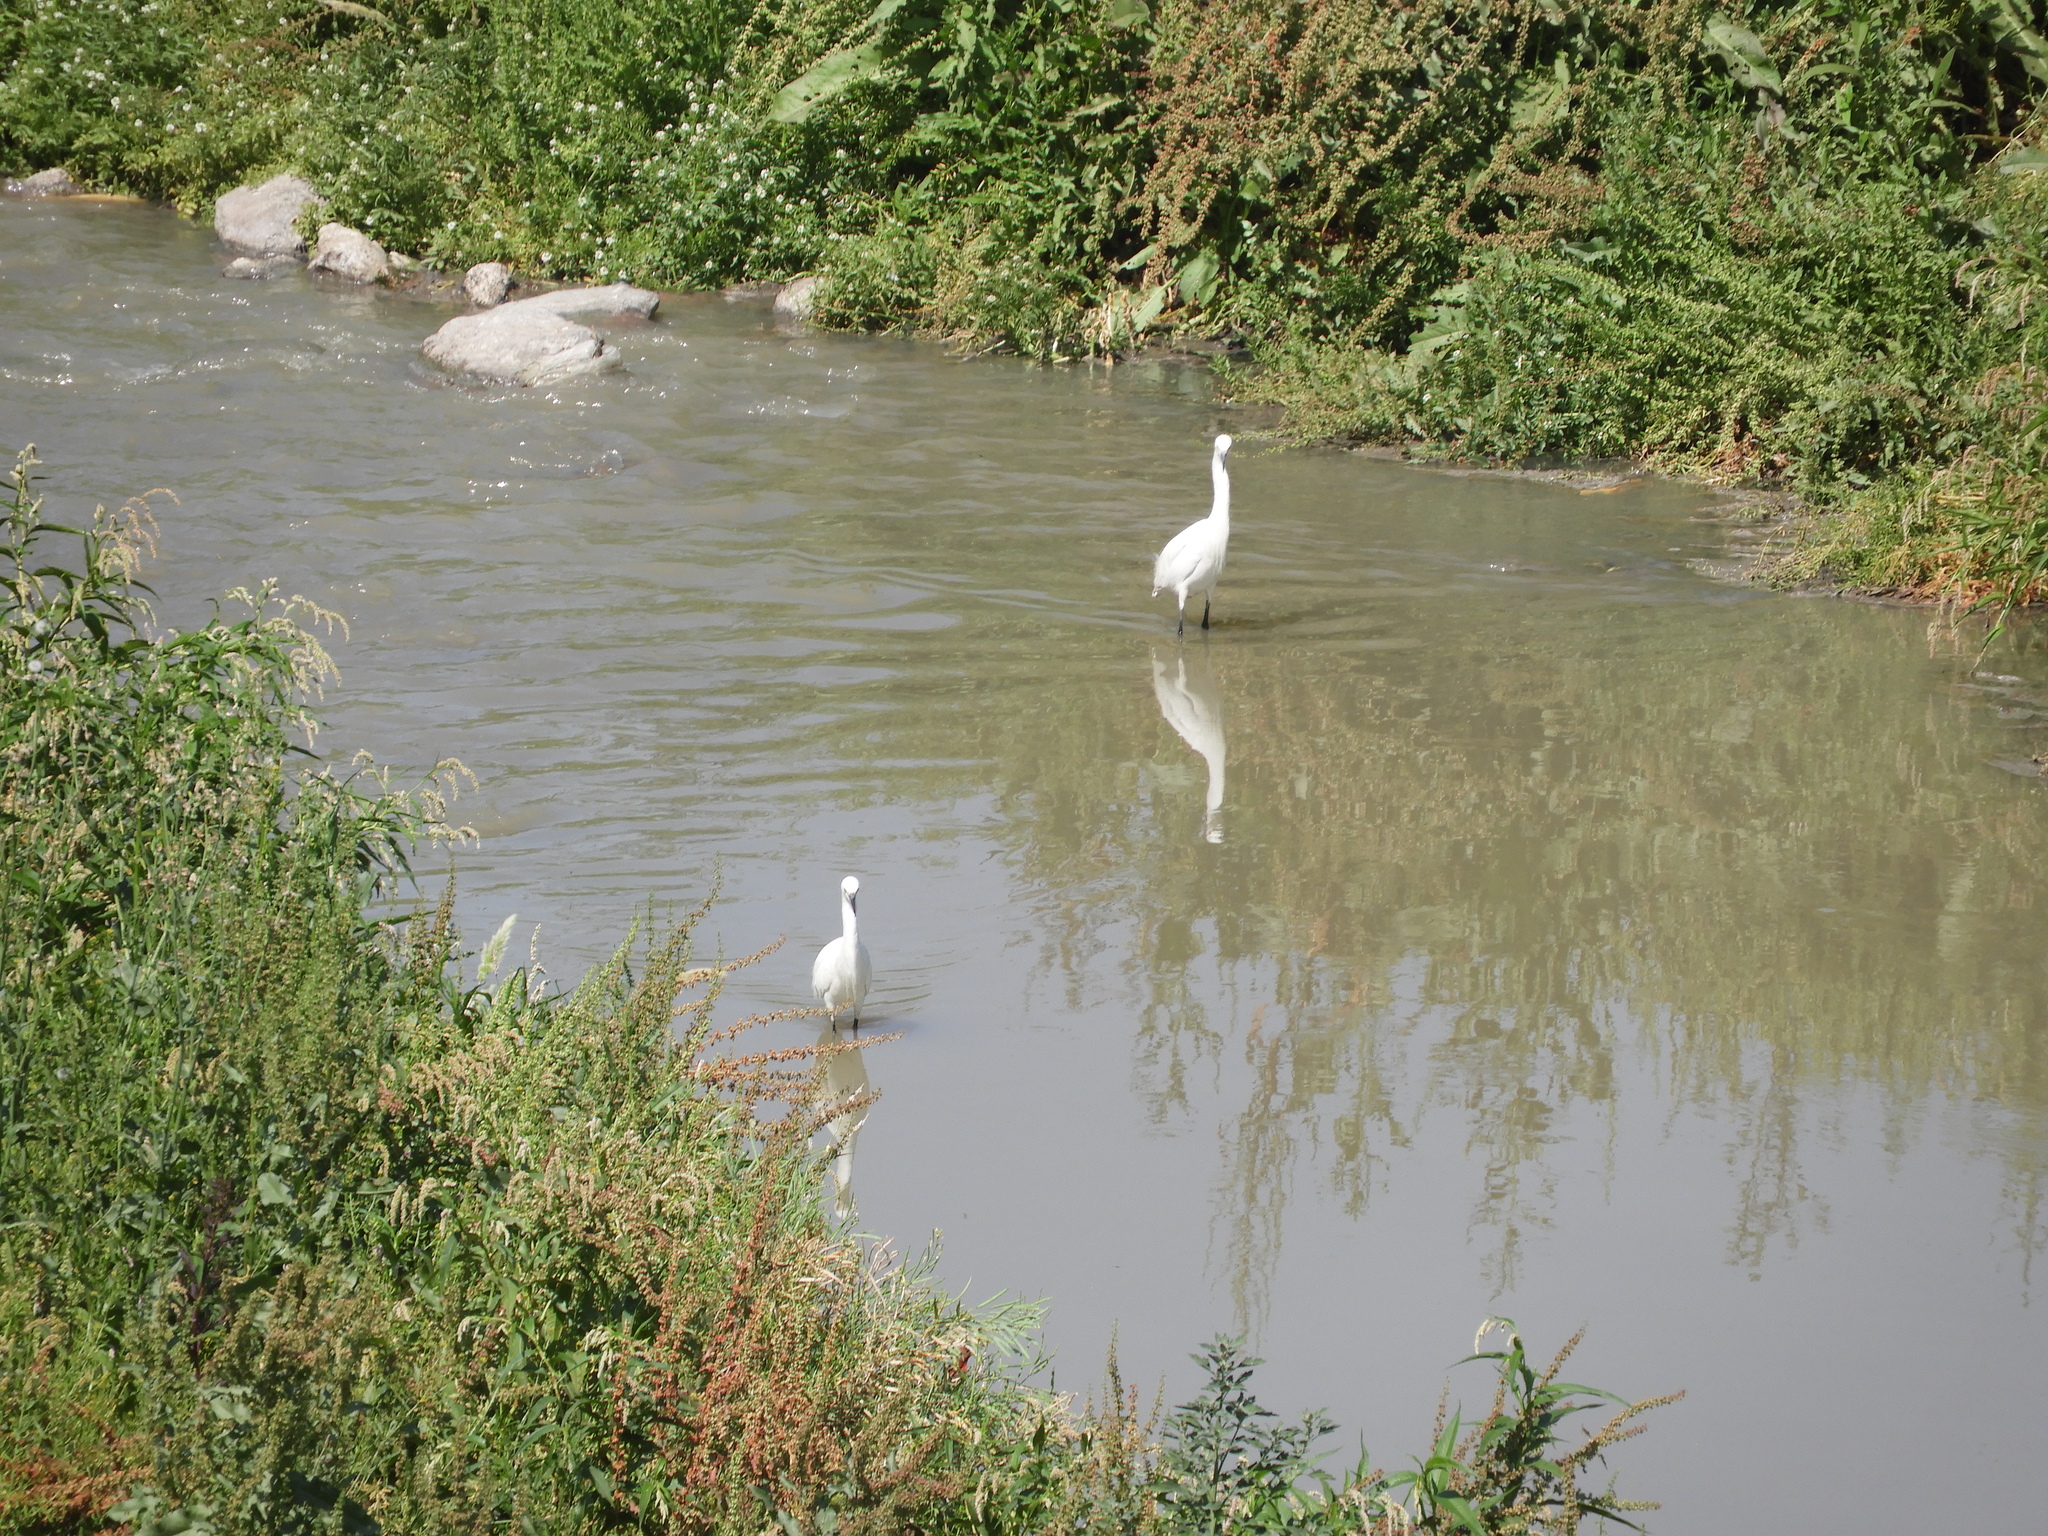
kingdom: Animalia
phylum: Chordata
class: Aves
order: Pelecaniformes
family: Ardeidae
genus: Egretta
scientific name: Egretta thula
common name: Snowy egret
